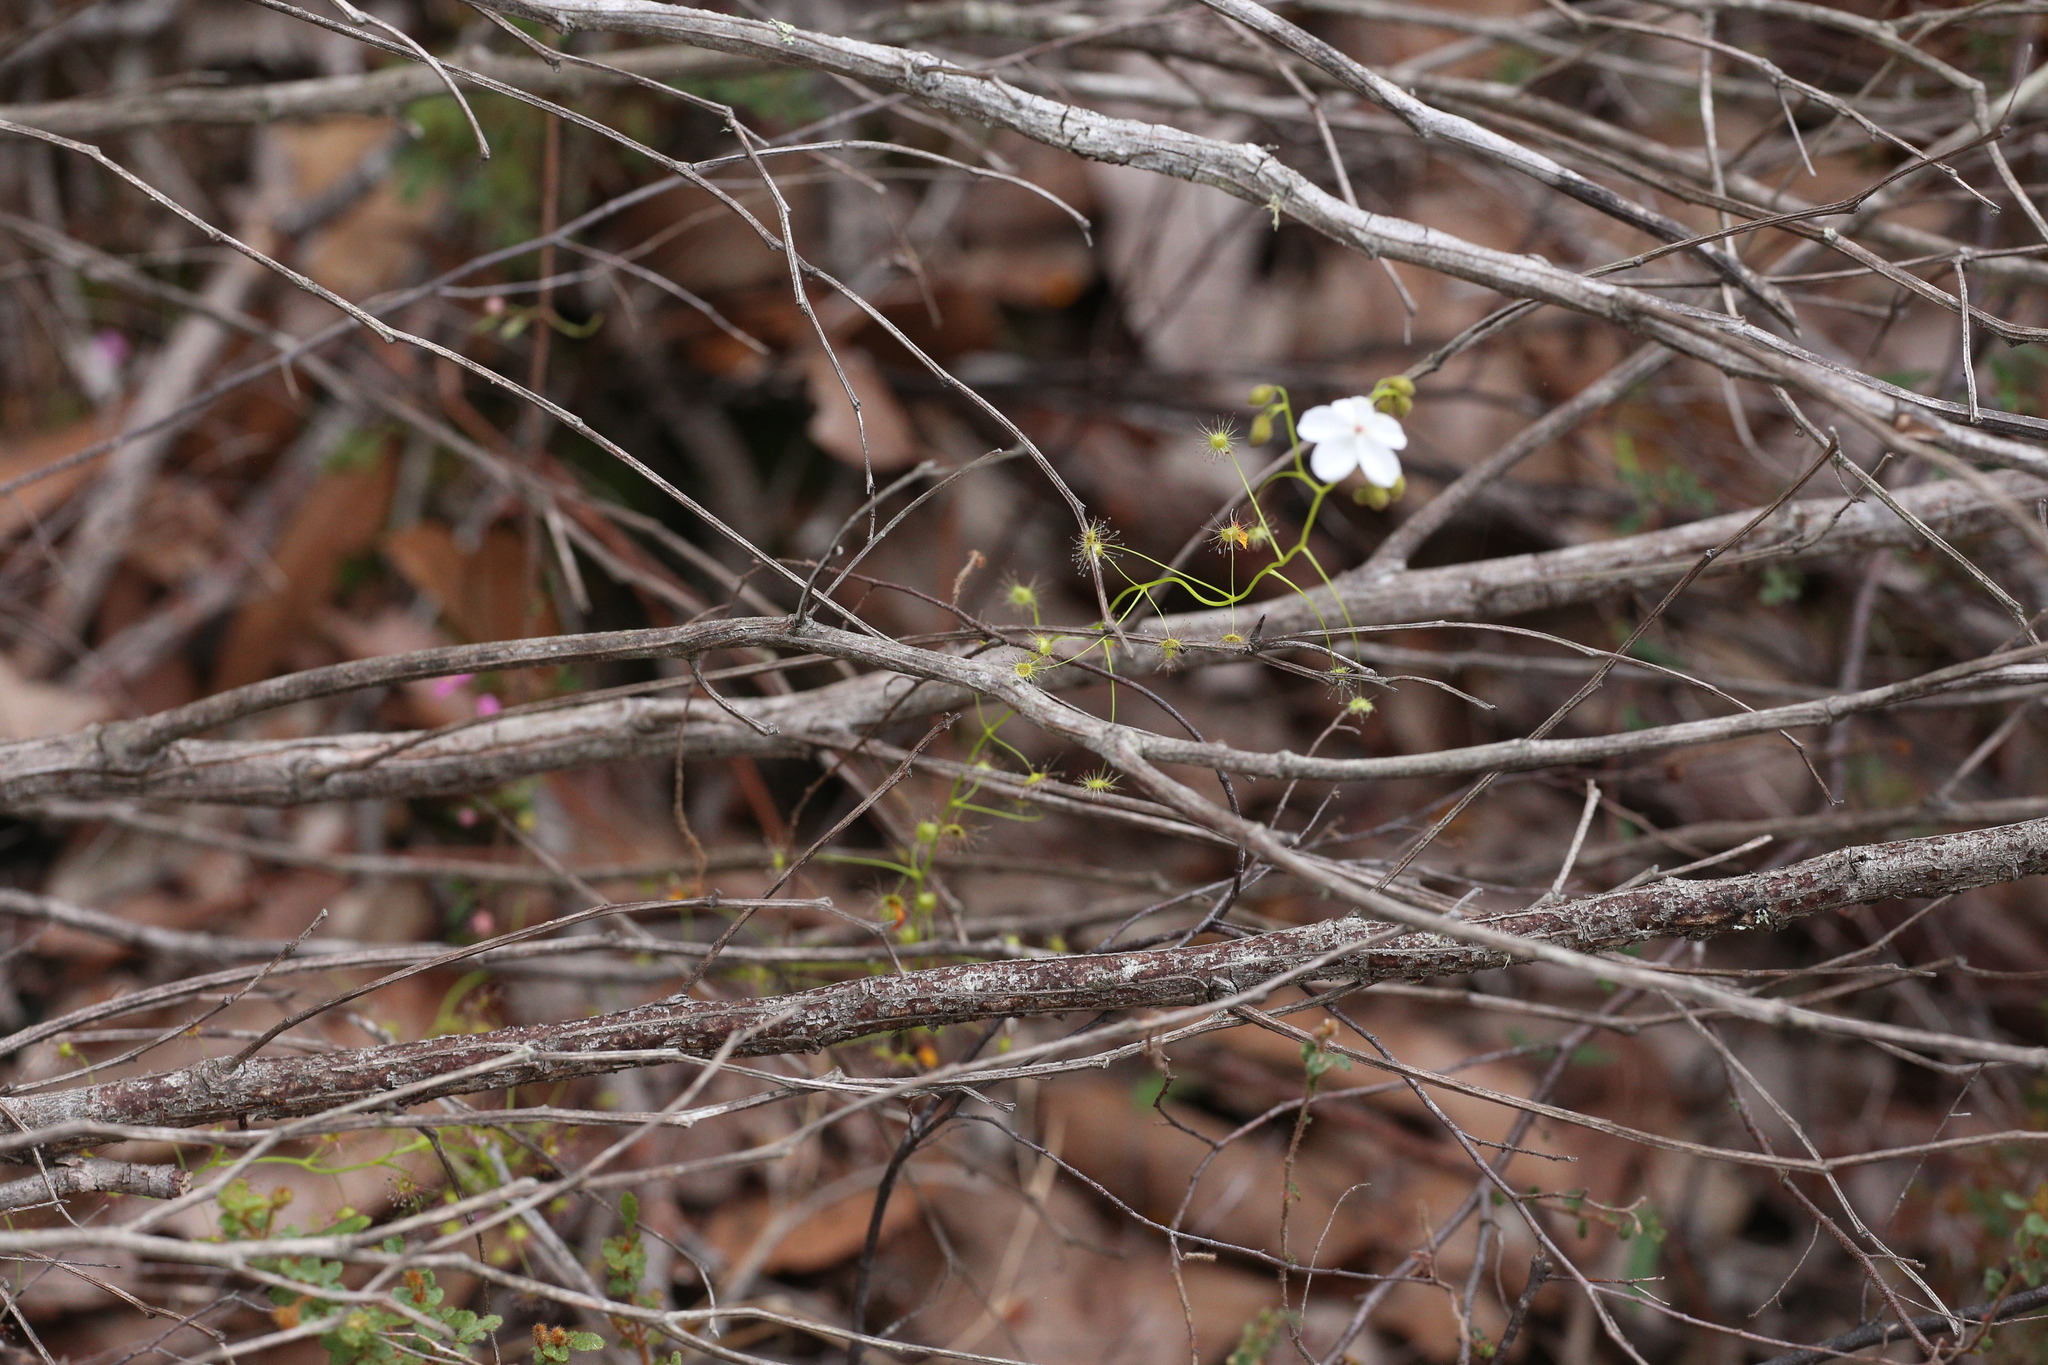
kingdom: Plantae
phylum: Tracheophyta
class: Magnoliopsida
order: Caryophyllales
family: Droseraceae
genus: Drosera
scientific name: Drosera erythrogyne
